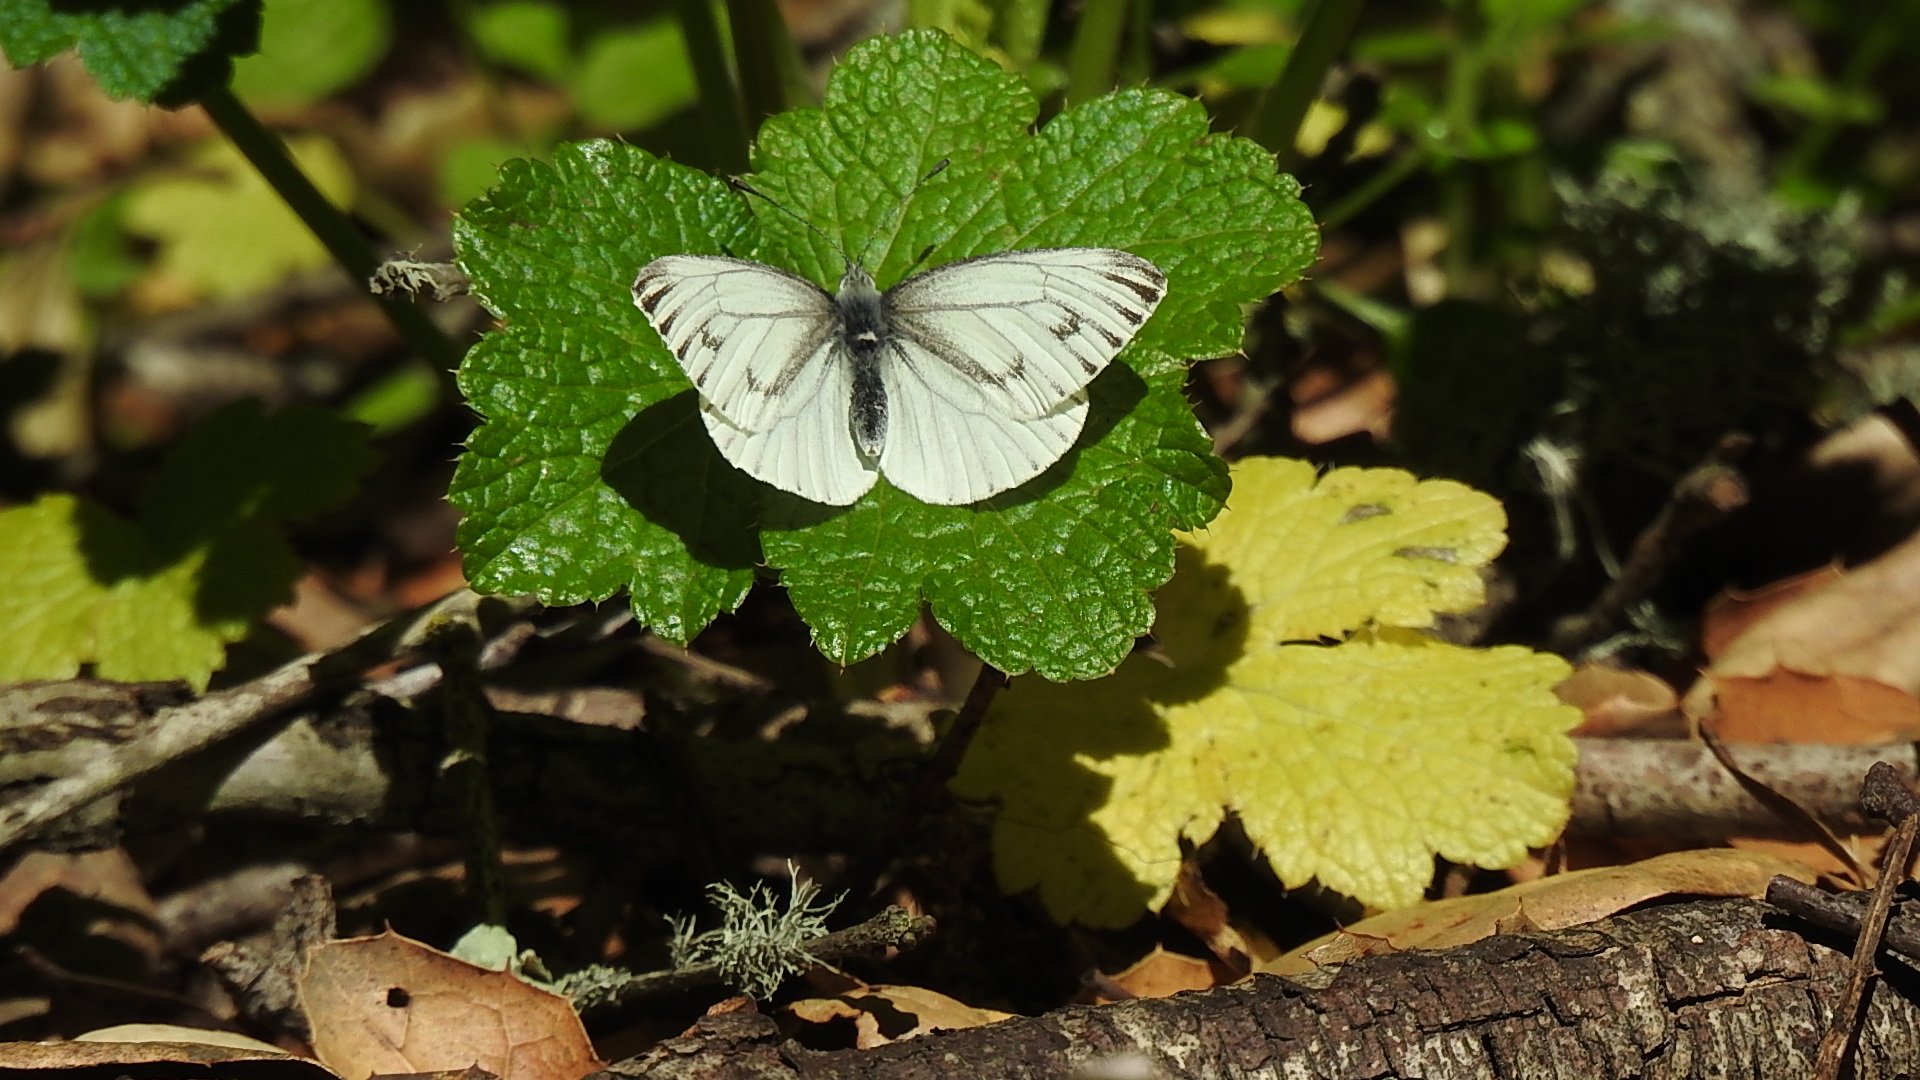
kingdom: Animalia
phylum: Arthropoda
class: Insecta
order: Lepidoptera
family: Pieridae
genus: Pieris
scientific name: Pieris marginalis
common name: Margined white
